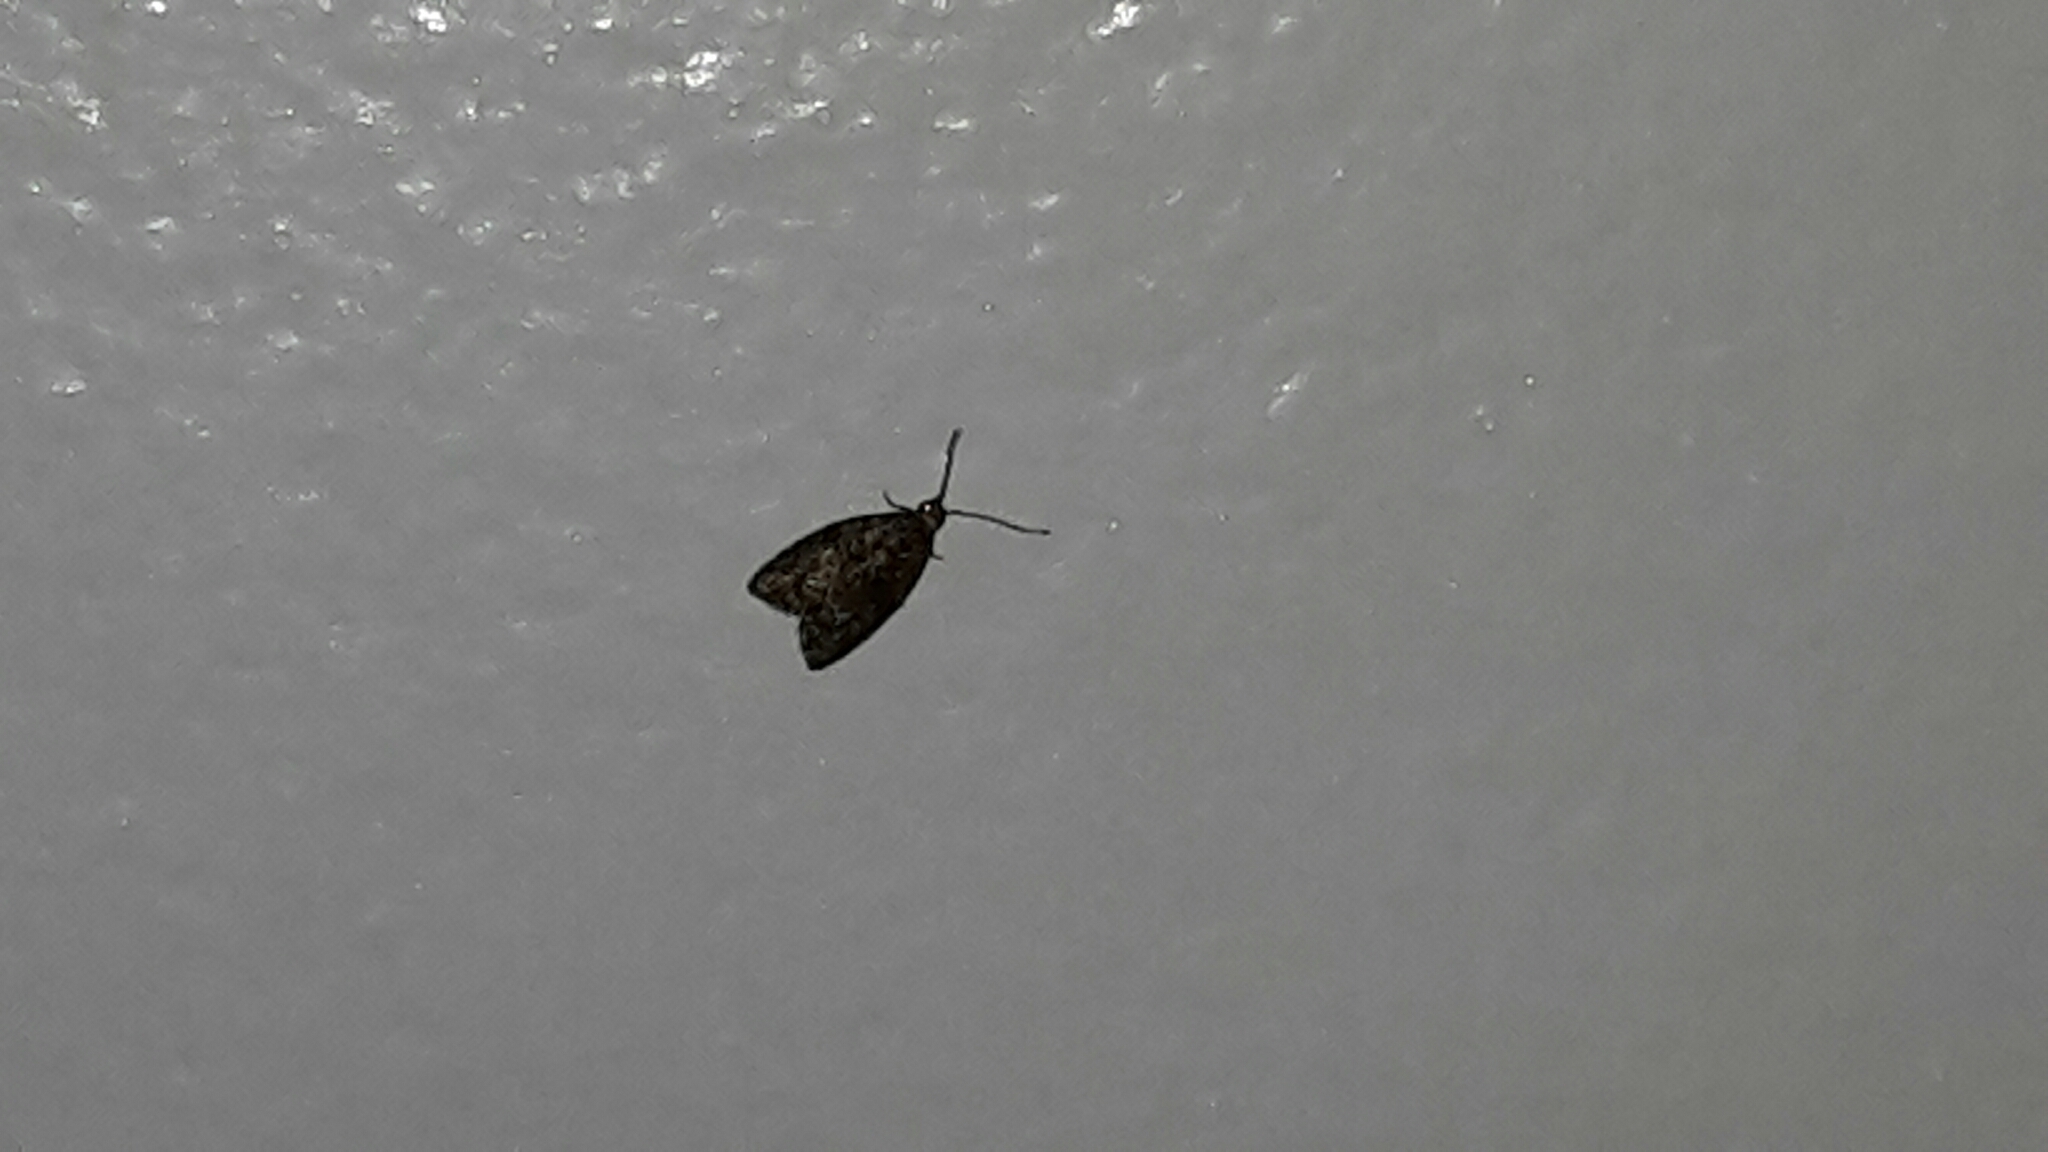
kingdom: Animalia
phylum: Arthropoda
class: Insecta
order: Lepidoptera
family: Tortricidae
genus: Capua
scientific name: Capua intractana
